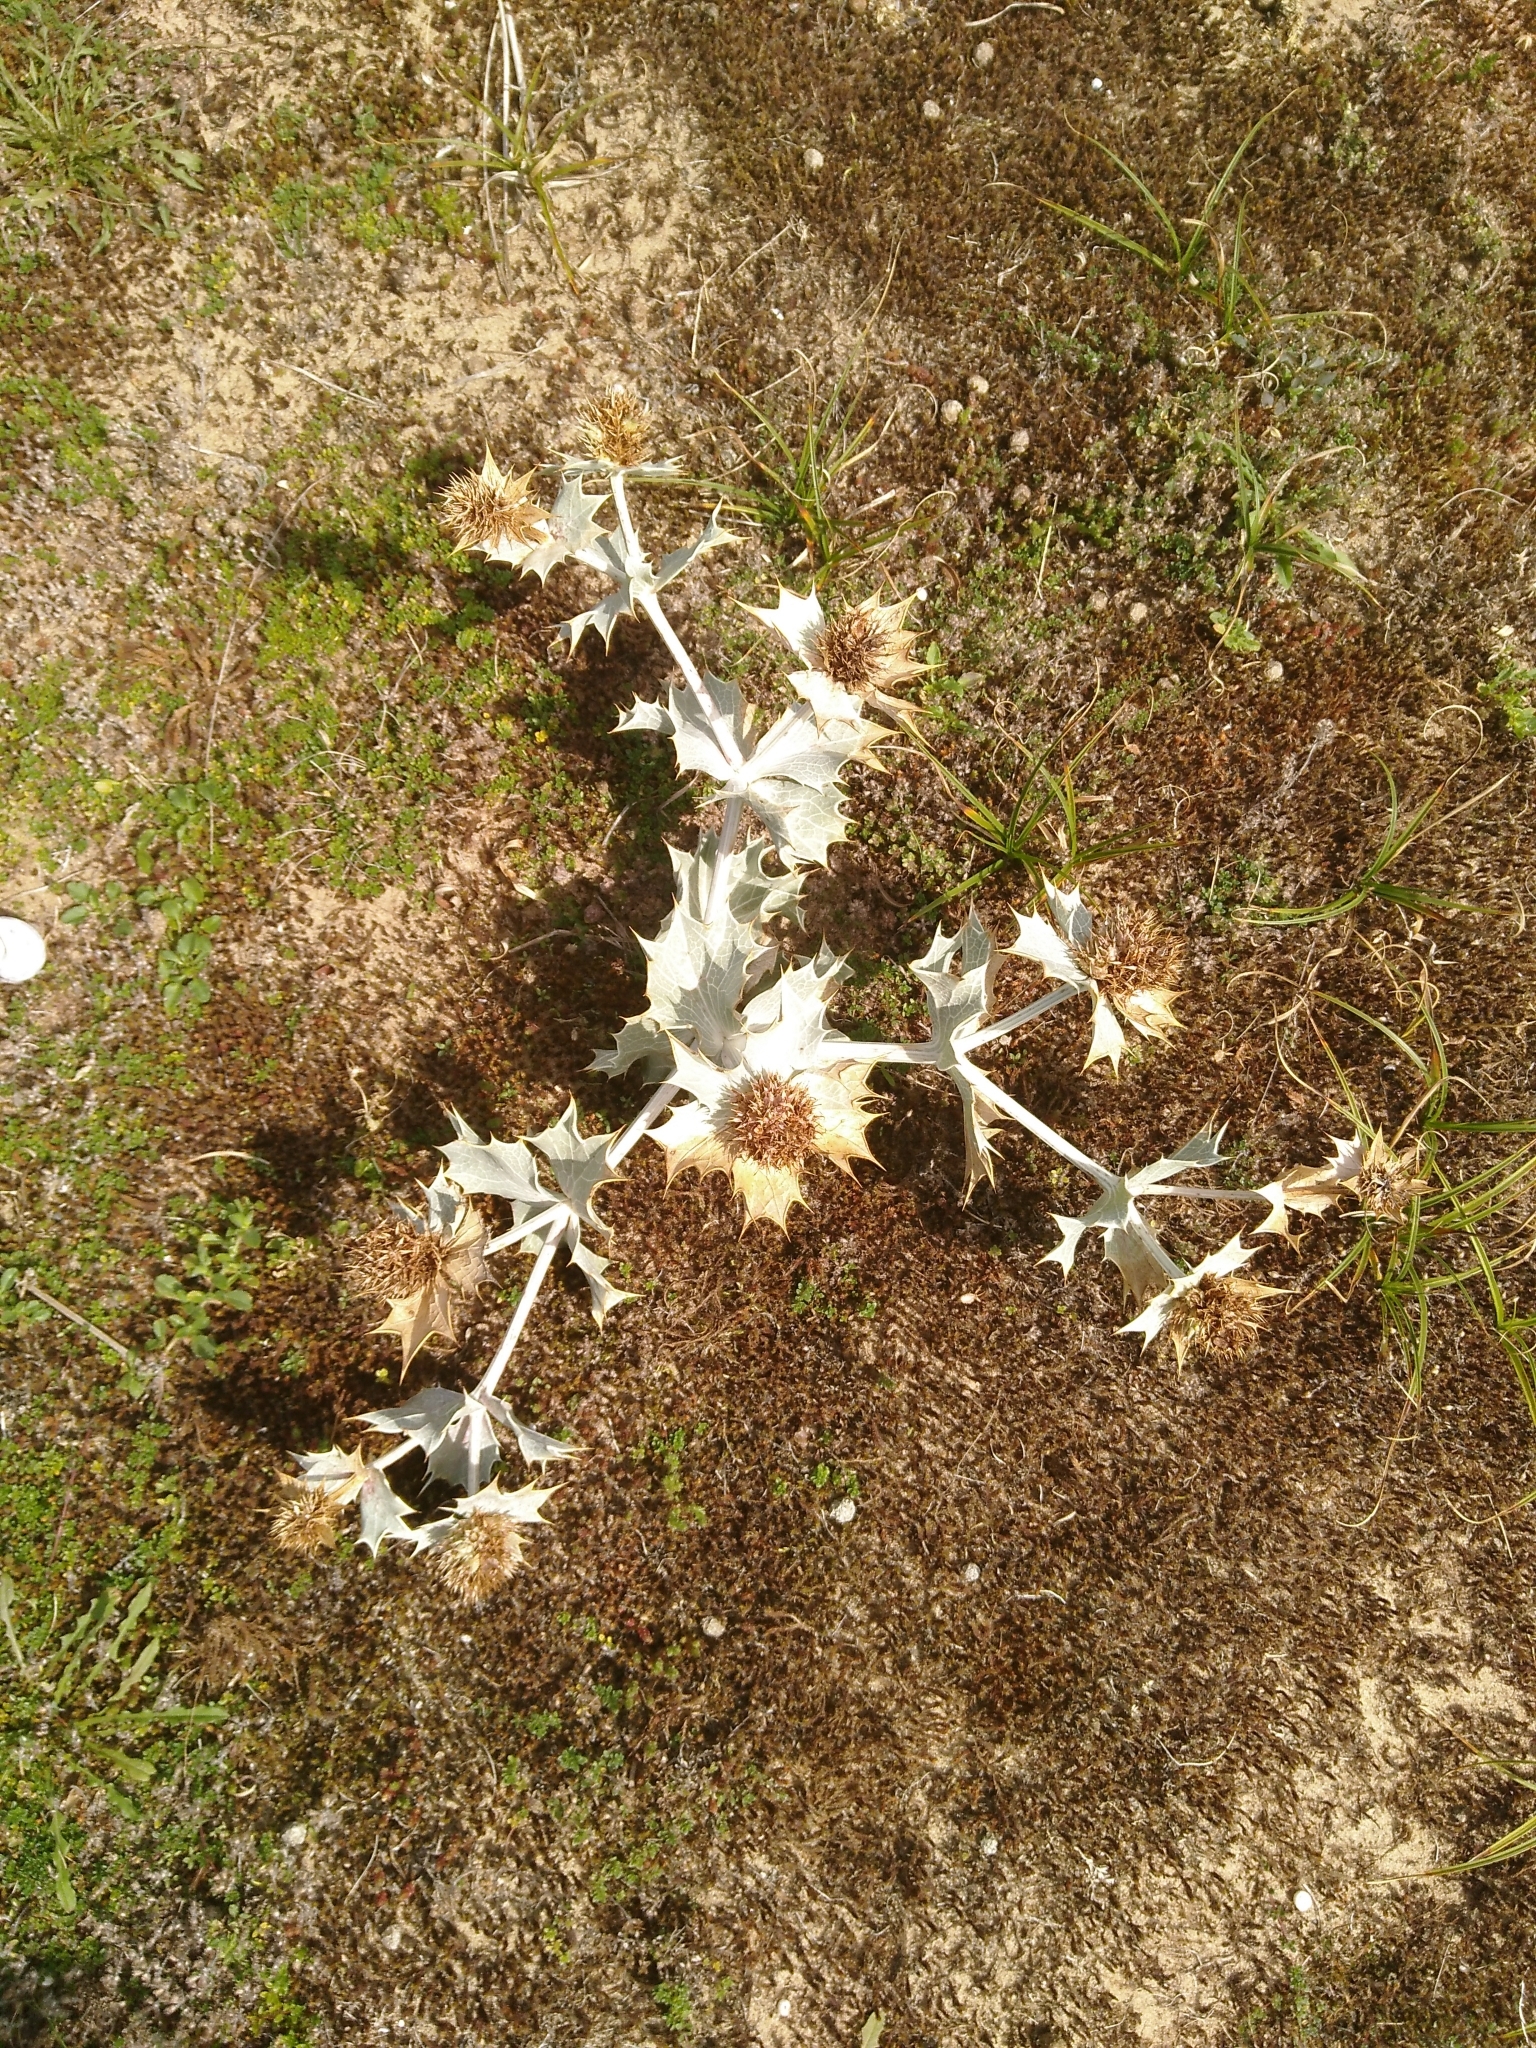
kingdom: Plantae
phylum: Tracheophyta
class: Magnoliopsida
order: Apiales
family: Apiaceae
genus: Eryngium
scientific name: Eryngium maritimum
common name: Sea-holly
